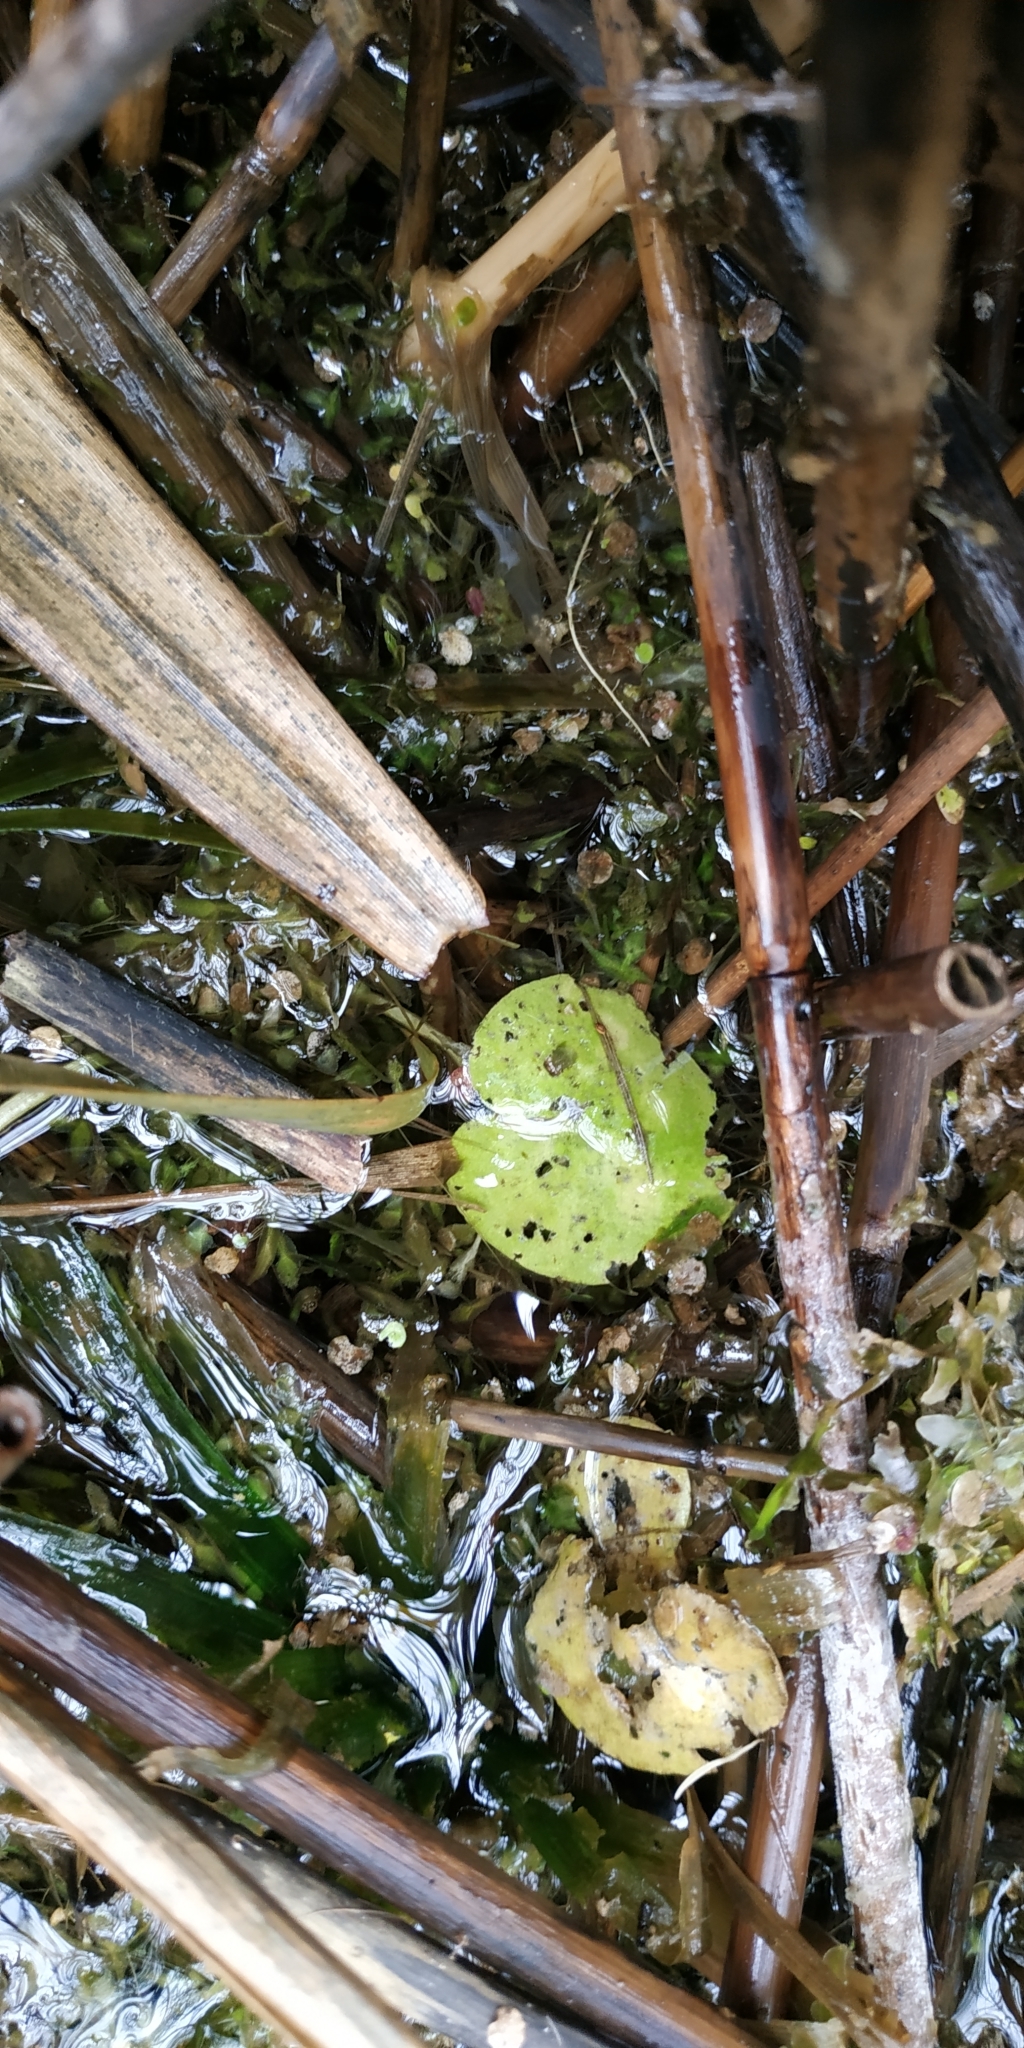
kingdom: Plantae
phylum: Tracheophyta
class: Liliopsida
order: Alismatales
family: Hydrocharitaceae
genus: Hydrocharis
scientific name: Hydrocharis morsus-ranae
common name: Frogbit
